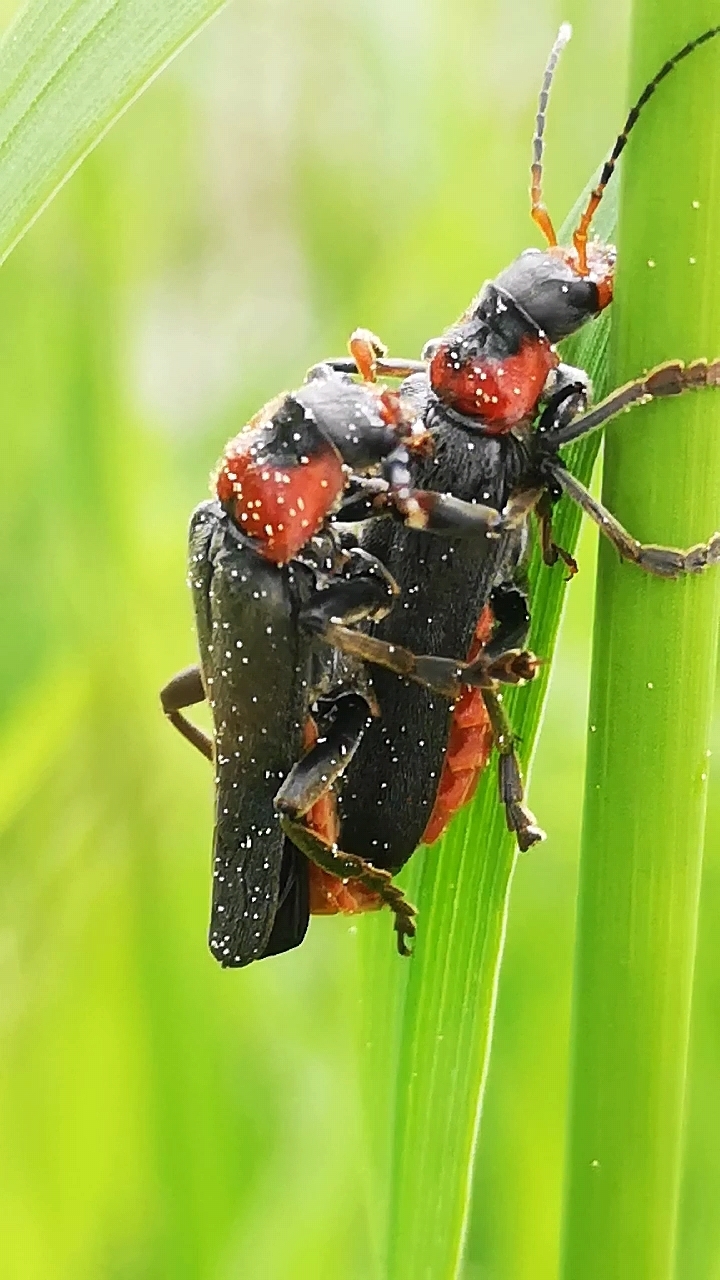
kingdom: Animalia
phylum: Arthropoda
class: Insecta
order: Coleoptera
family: Cantharidae
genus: Cantharis
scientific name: Cantharis fusca
